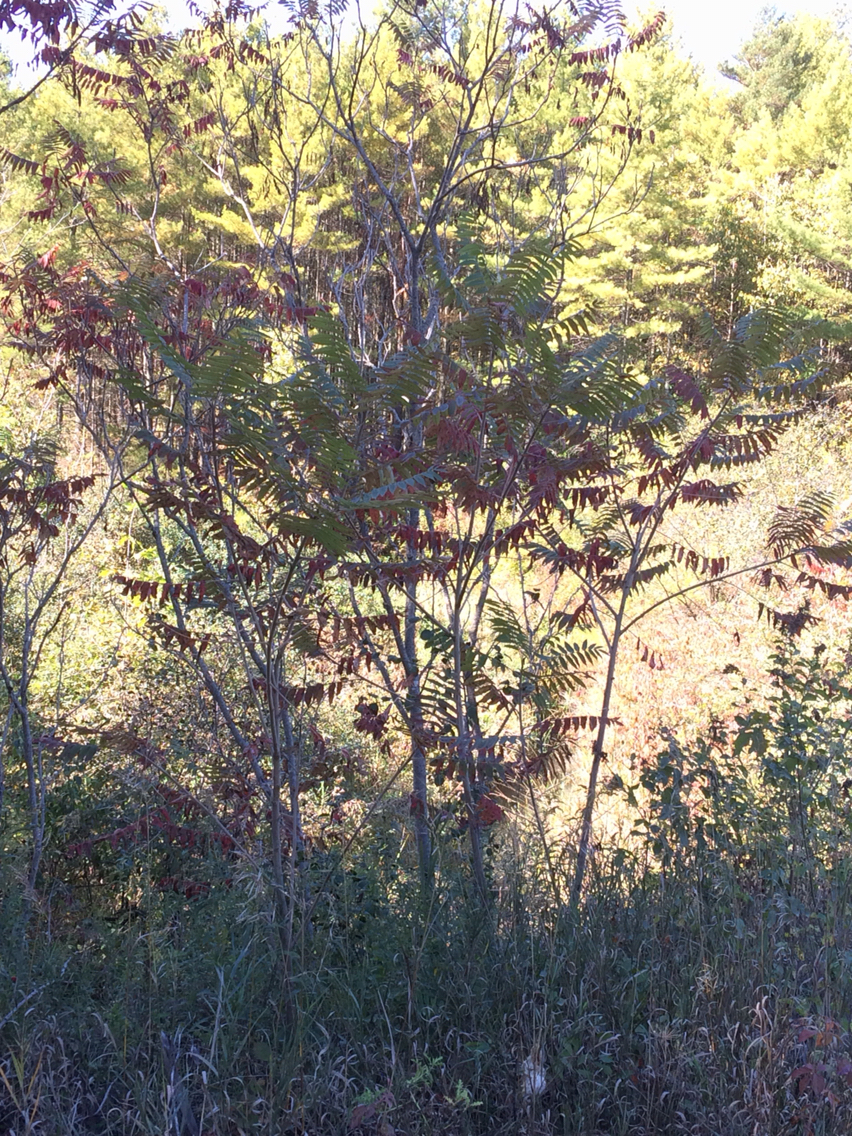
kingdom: Plantae
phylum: Tracheophyta
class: Magnoliopsida
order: Sapindales
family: Anacardiaceae
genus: Rhus
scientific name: Rhus typhina
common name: Staghorn sumac
